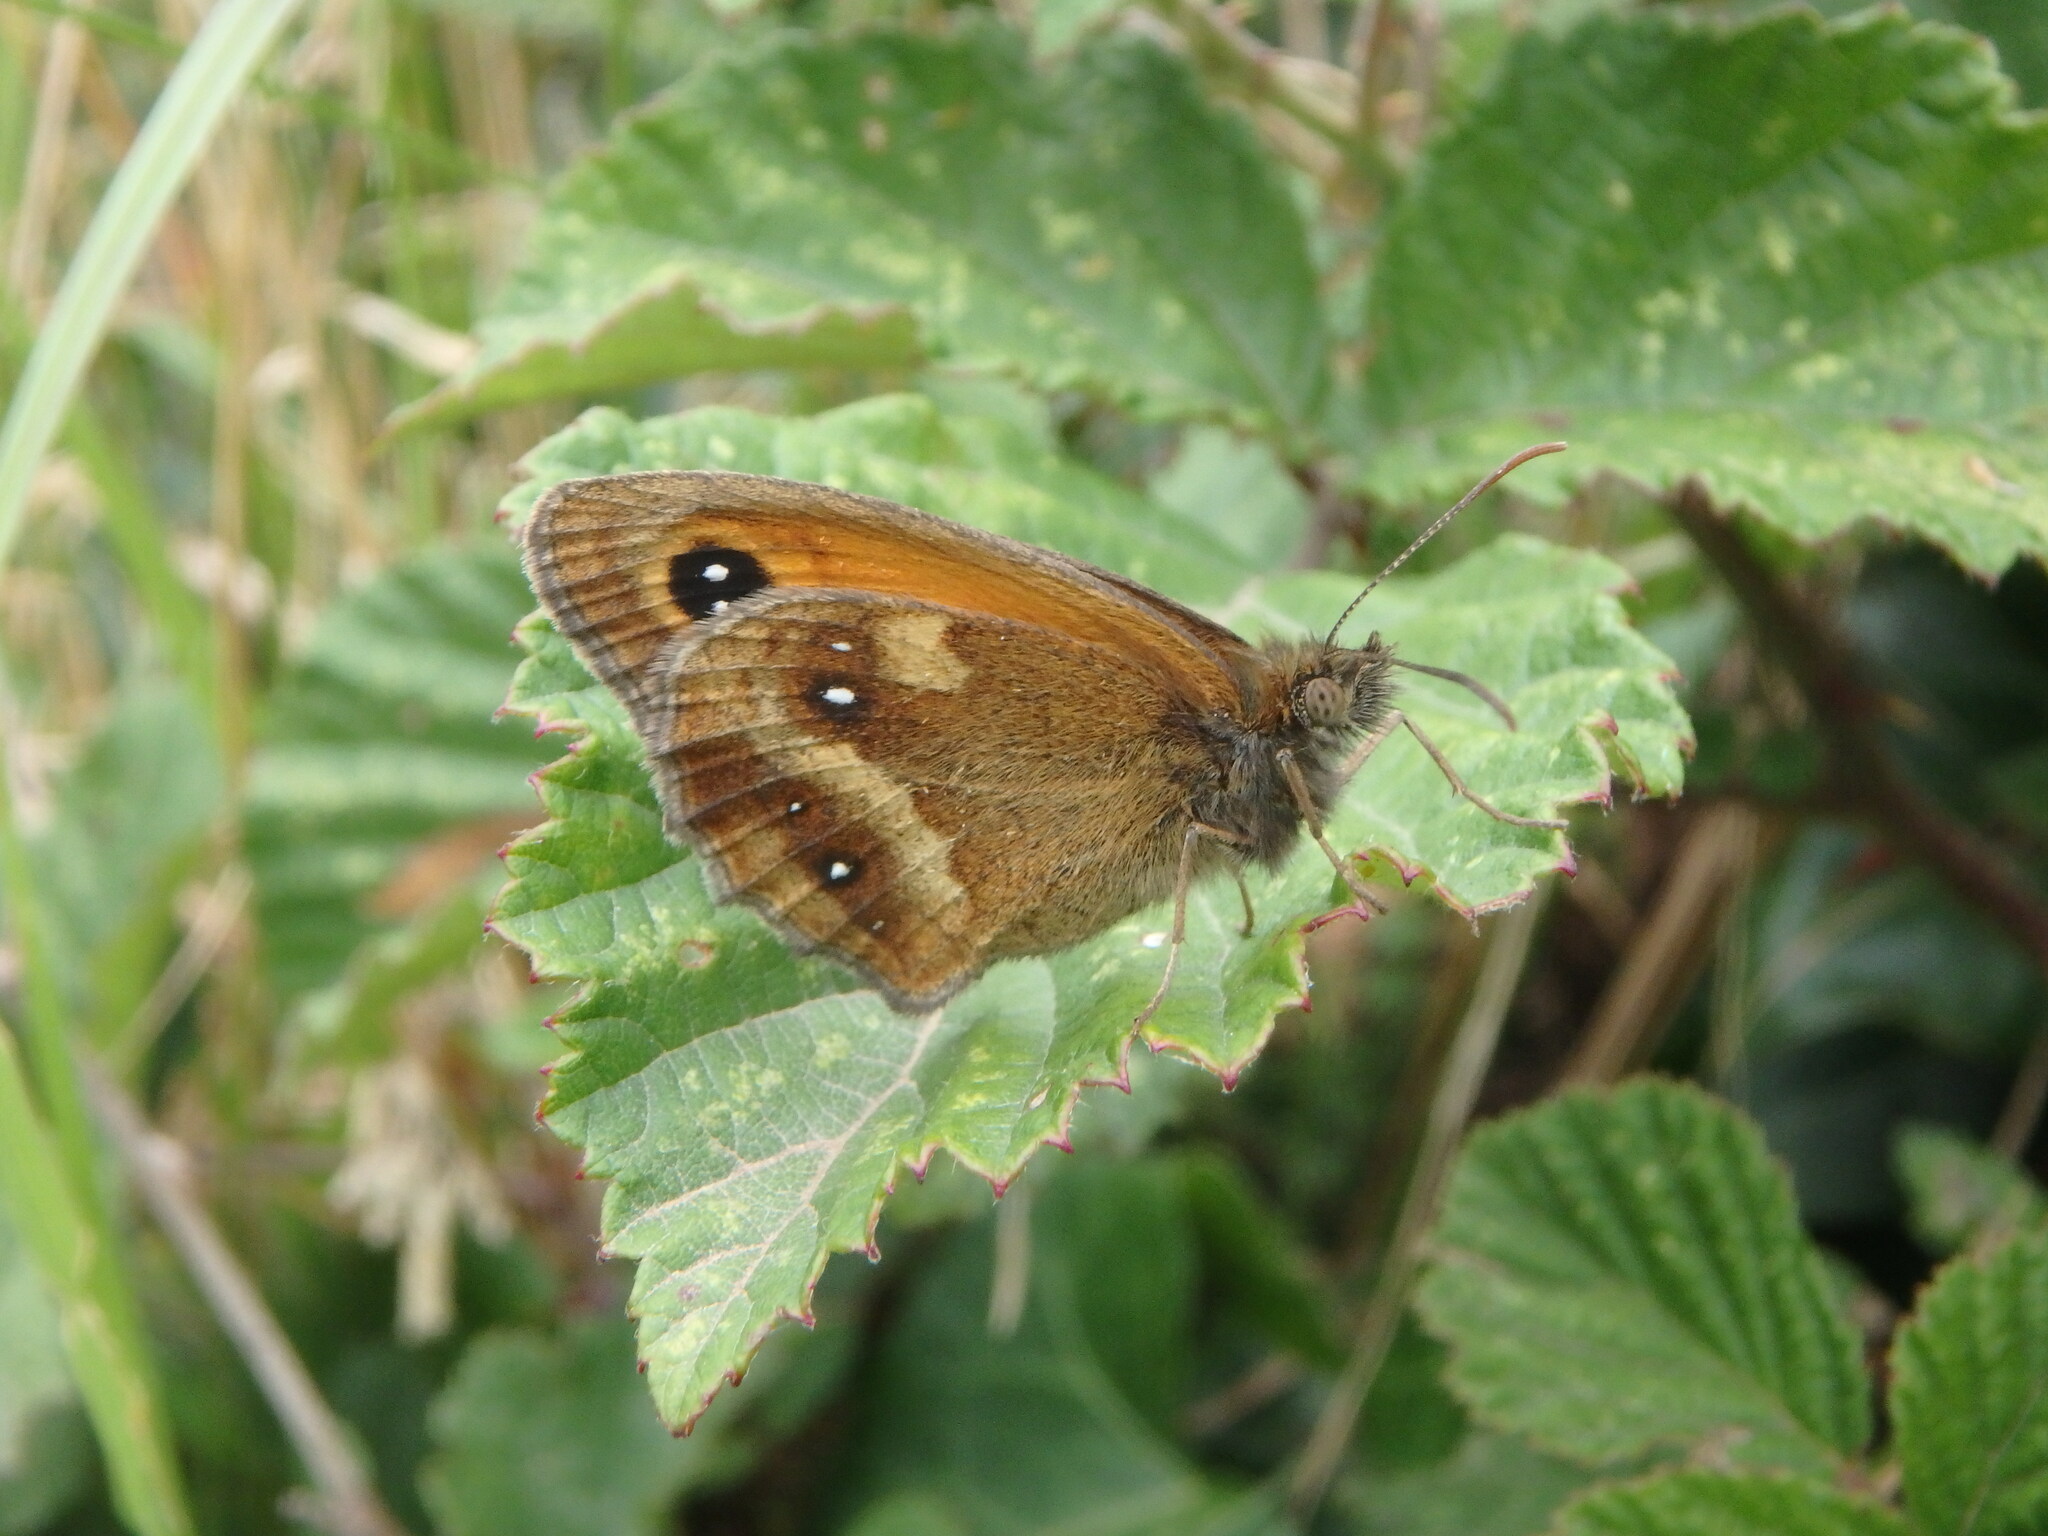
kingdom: Animalia
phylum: Arthropoda
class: Insecta
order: Lepidoptera
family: Nymphalidae
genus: Pyronia
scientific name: Pyronia tithonus
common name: Gatekeeper
